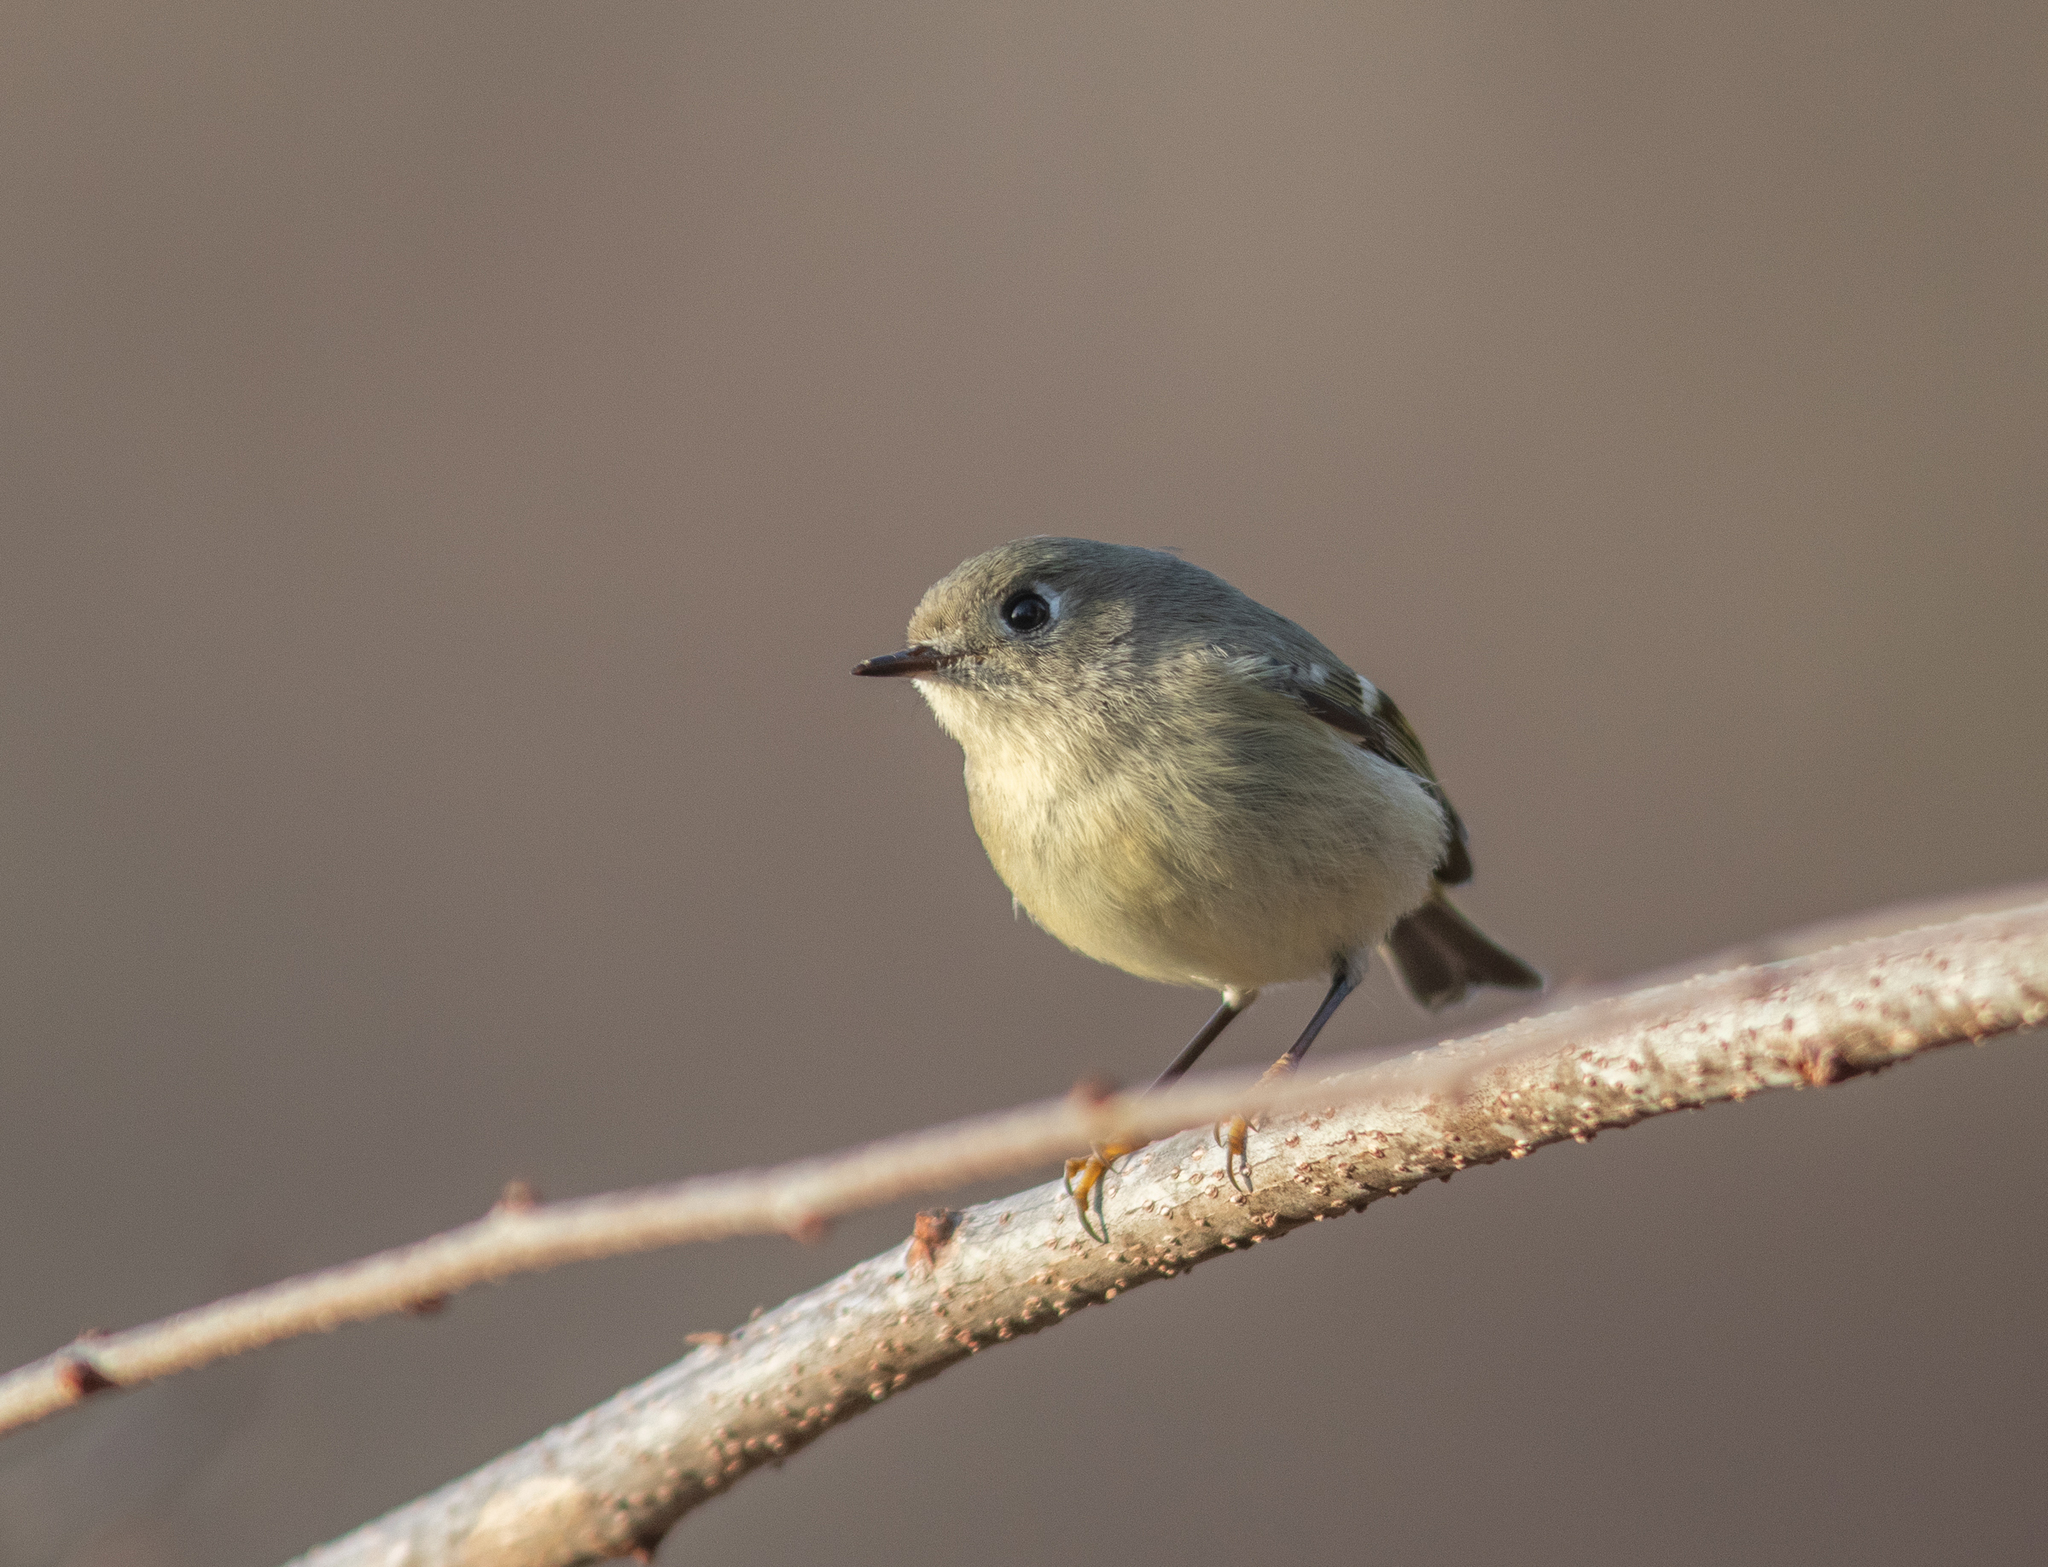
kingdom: Animalia
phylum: Chordata
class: Aves
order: Passeriformes
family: Regulidae
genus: Regulus
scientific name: Regulus calendula
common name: Ruby-crowned kinglet
